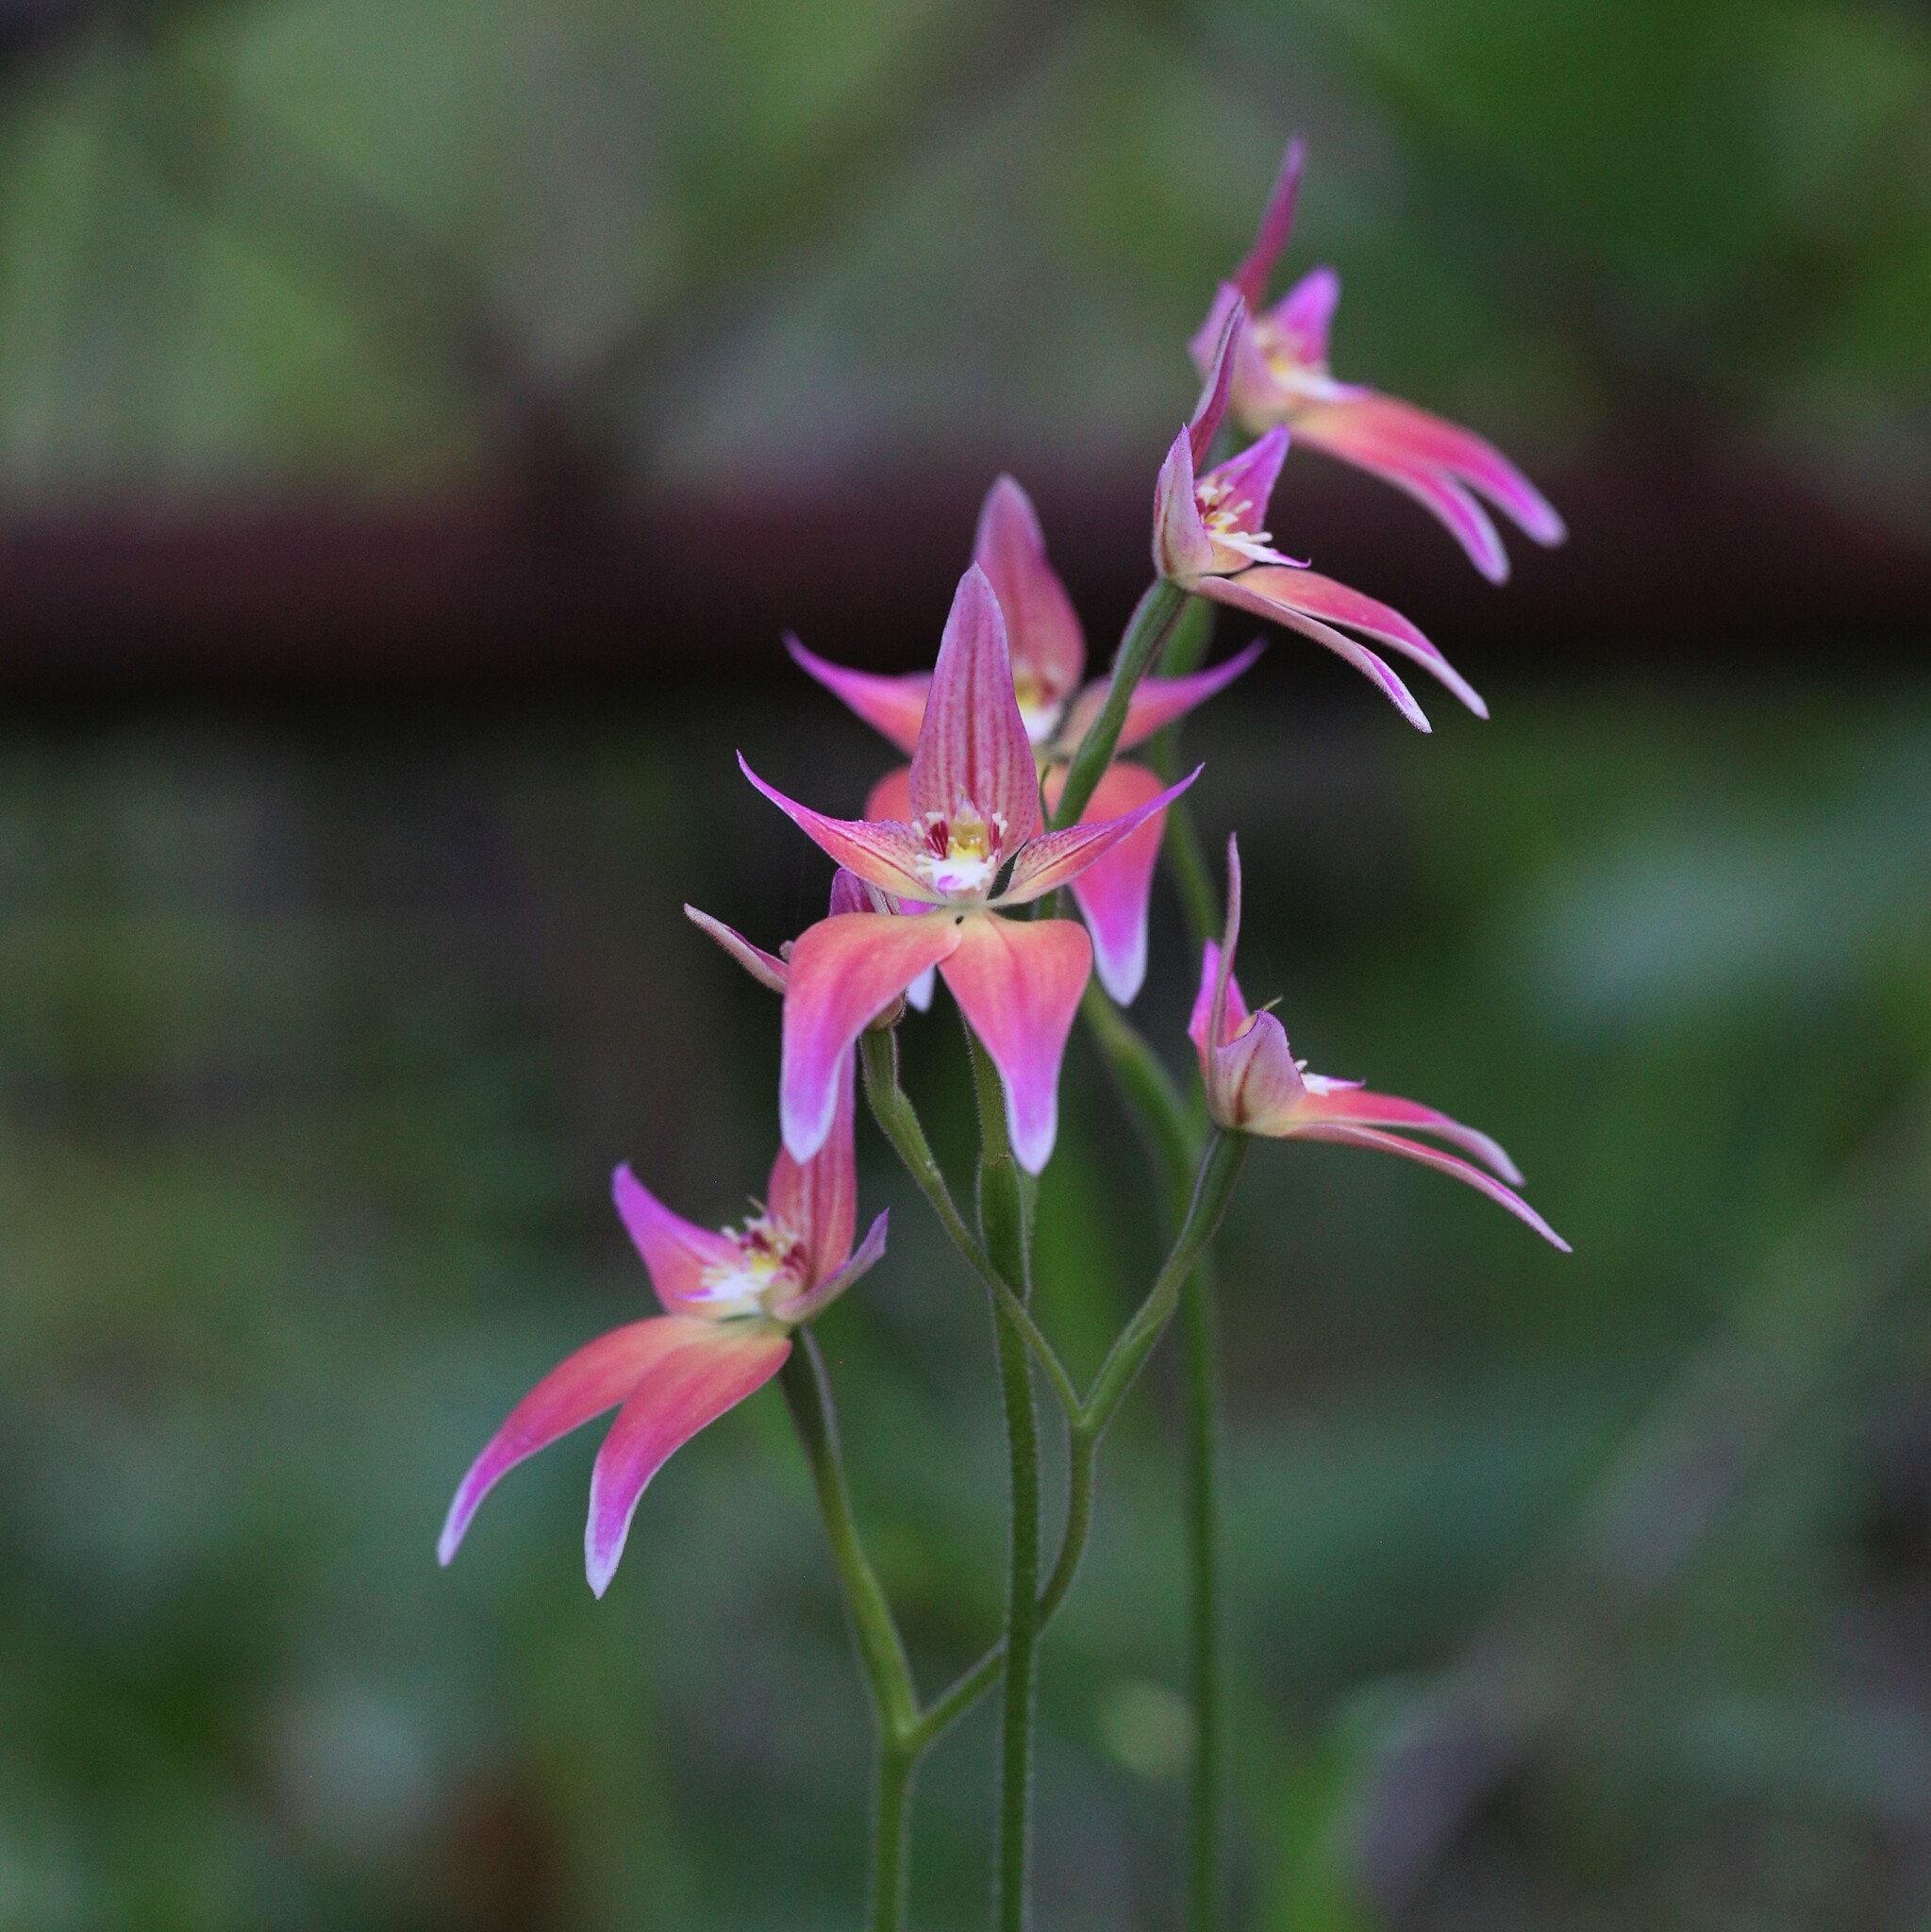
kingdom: Plantae
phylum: Tracheophyta
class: Liliopsida
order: Asparagales
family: Orchidaceae
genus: Caladenia
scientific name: Caladenia spectabilis
